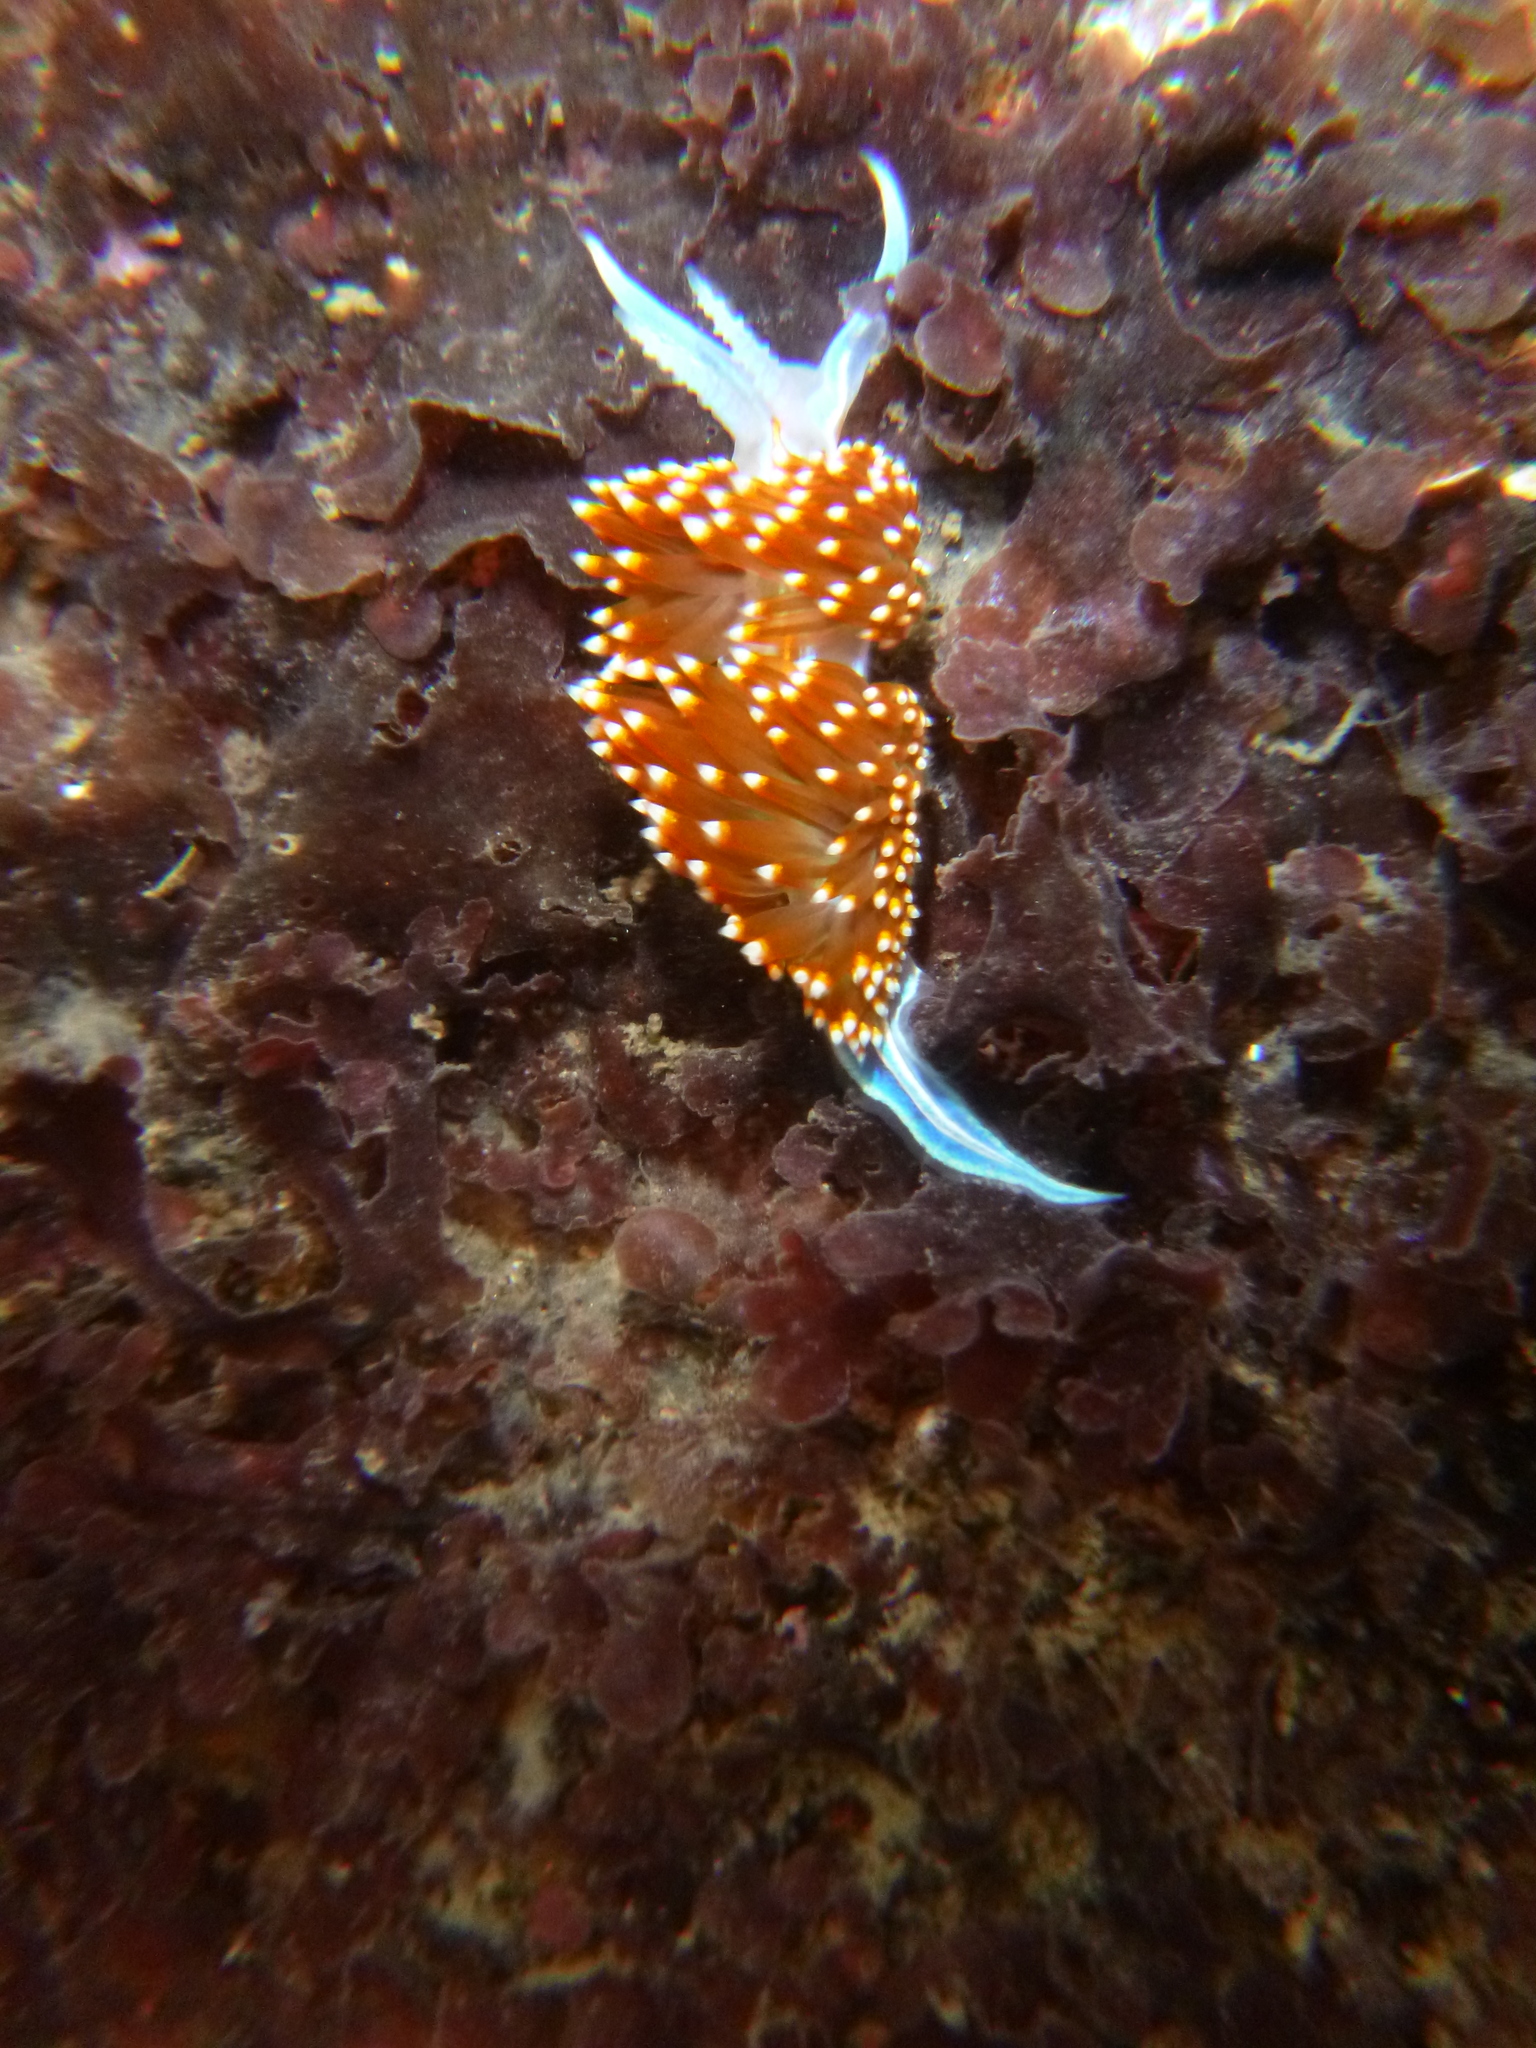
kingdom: Animalia
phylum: Mollusca
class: Gastropoda
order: Nudibranchia
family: Myrrhinidae
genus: Hermissenda
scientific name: Hermissenda opalescens
